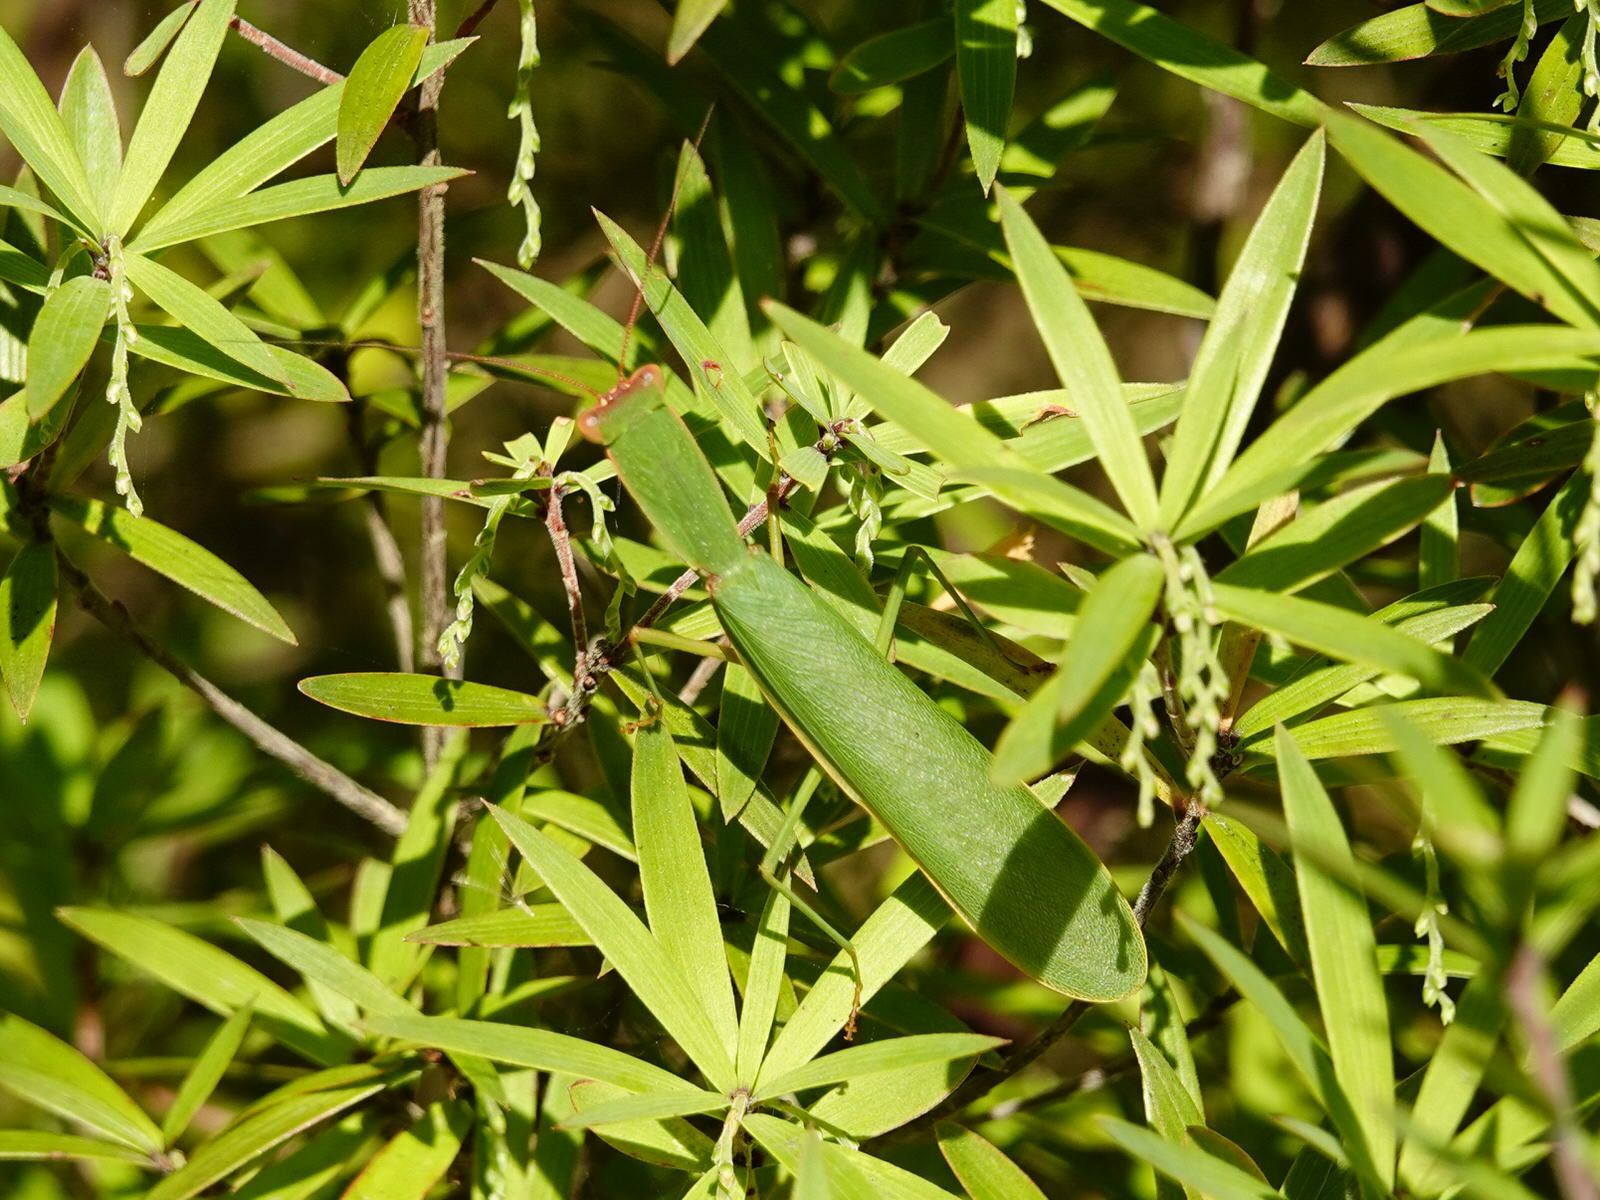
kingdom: Animalia
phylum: Arthropoda
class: Insecta
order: Mantodea
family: Mantidae
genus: Orthodera
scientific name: Orthodera novaezealandiae
